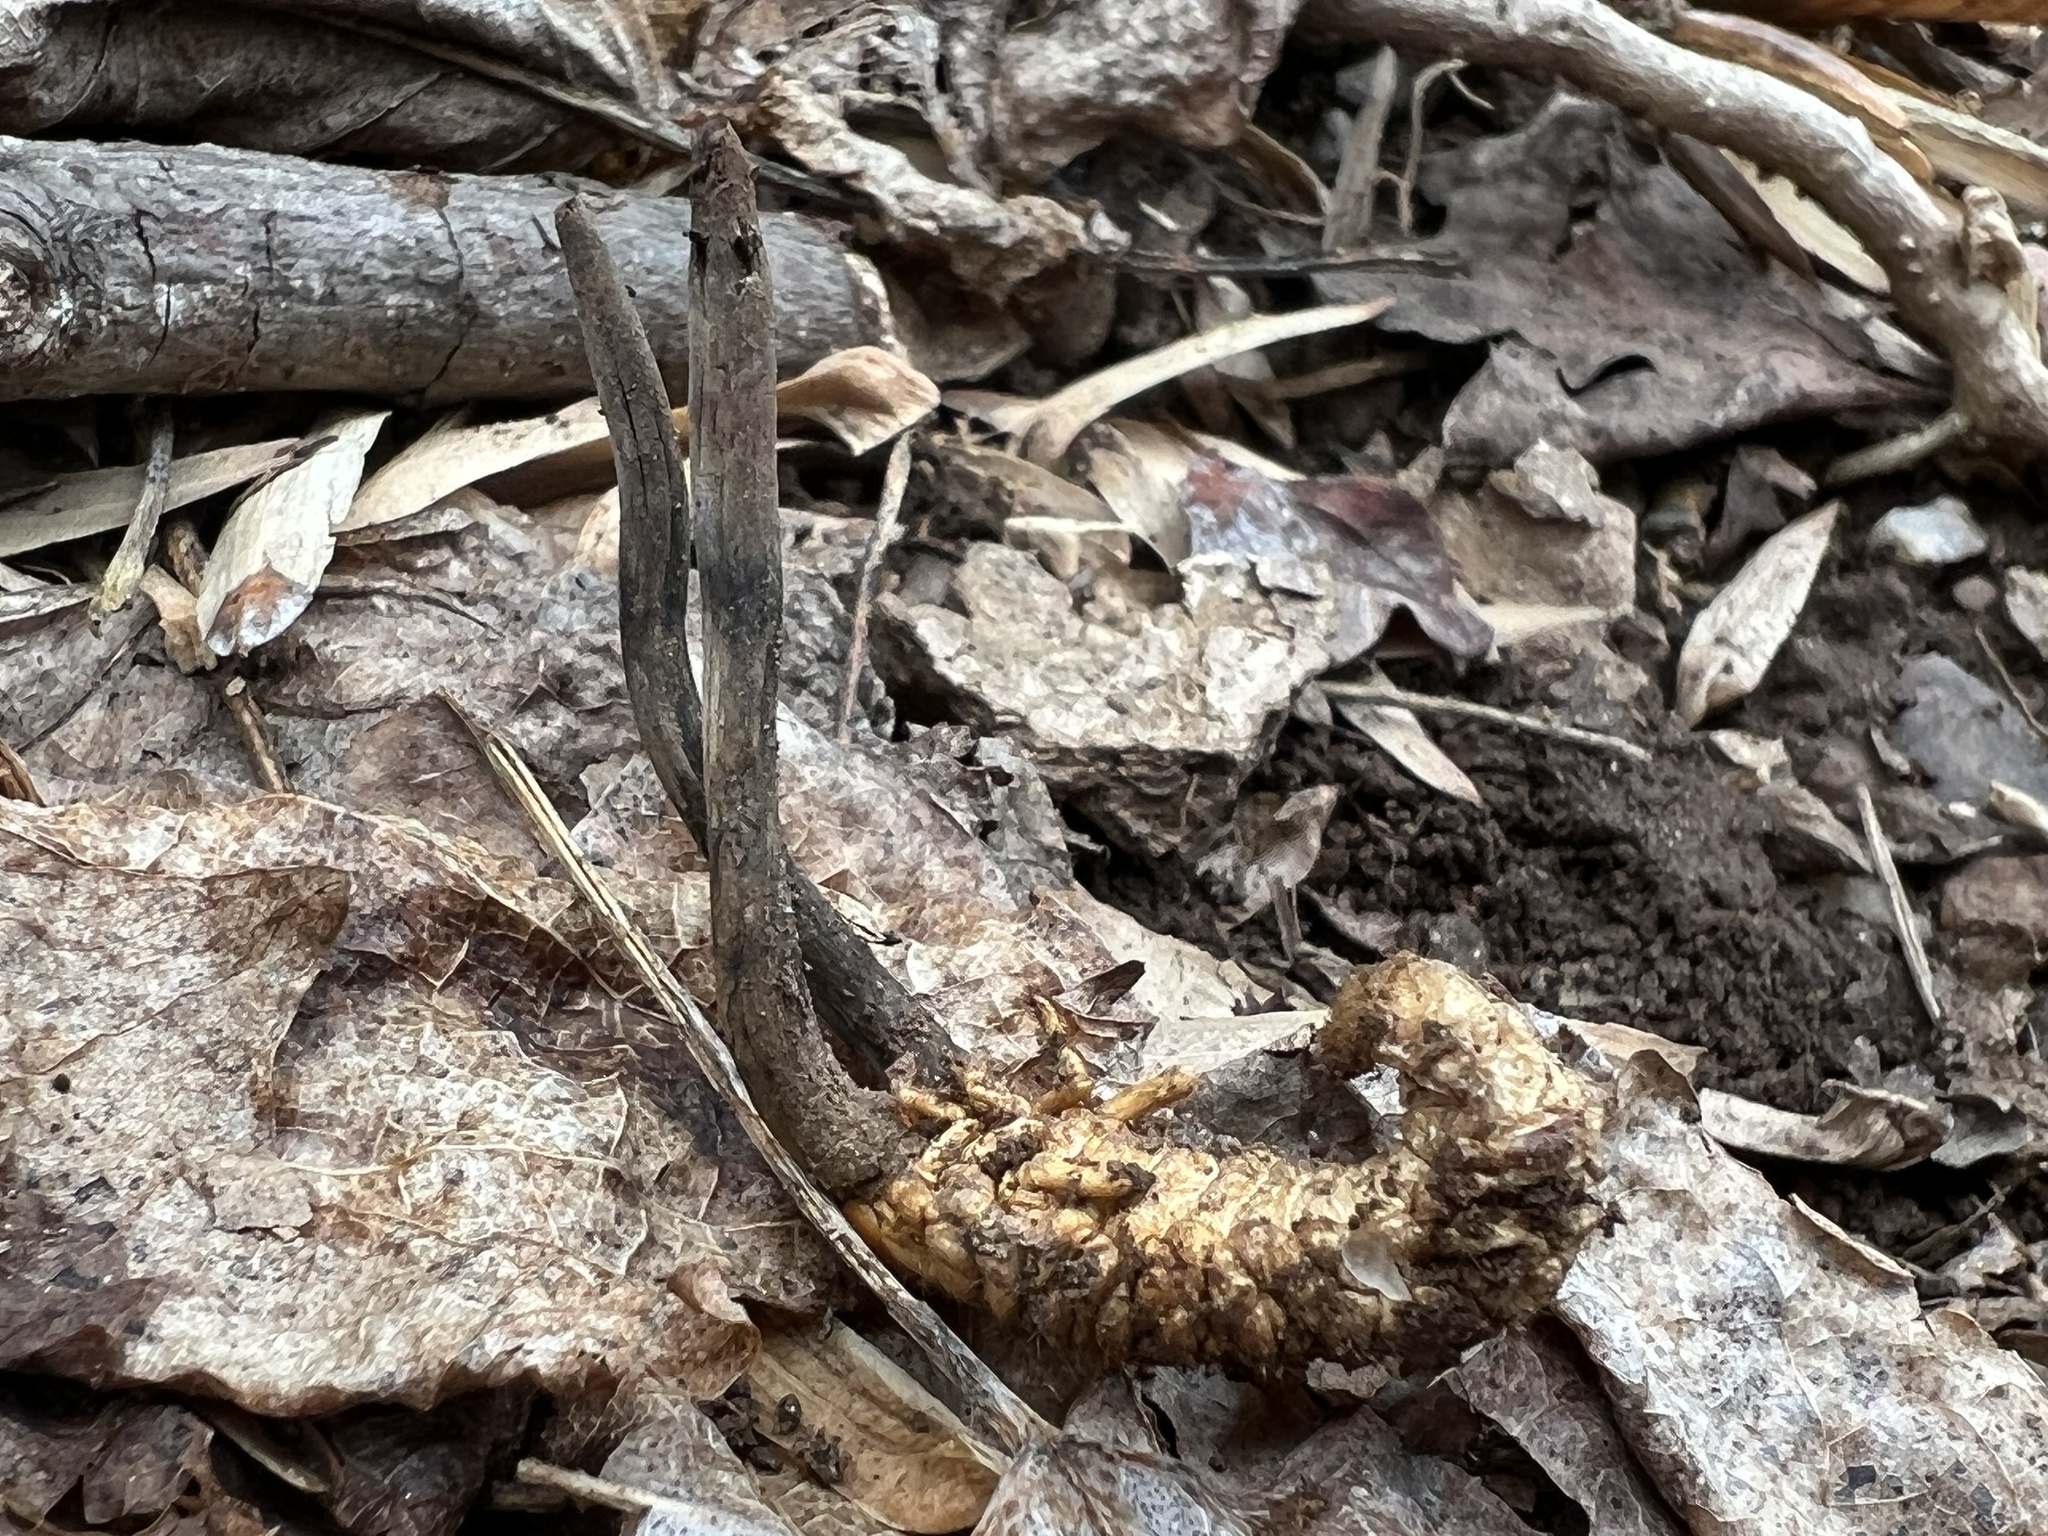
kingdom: Fungi
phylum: Ascomycota
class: Sordariomycetes
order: Hypocreales
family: Ophiocordycipitaceae
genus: Ophiocordyceps
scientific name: Ophiocordyceps ravenelii
